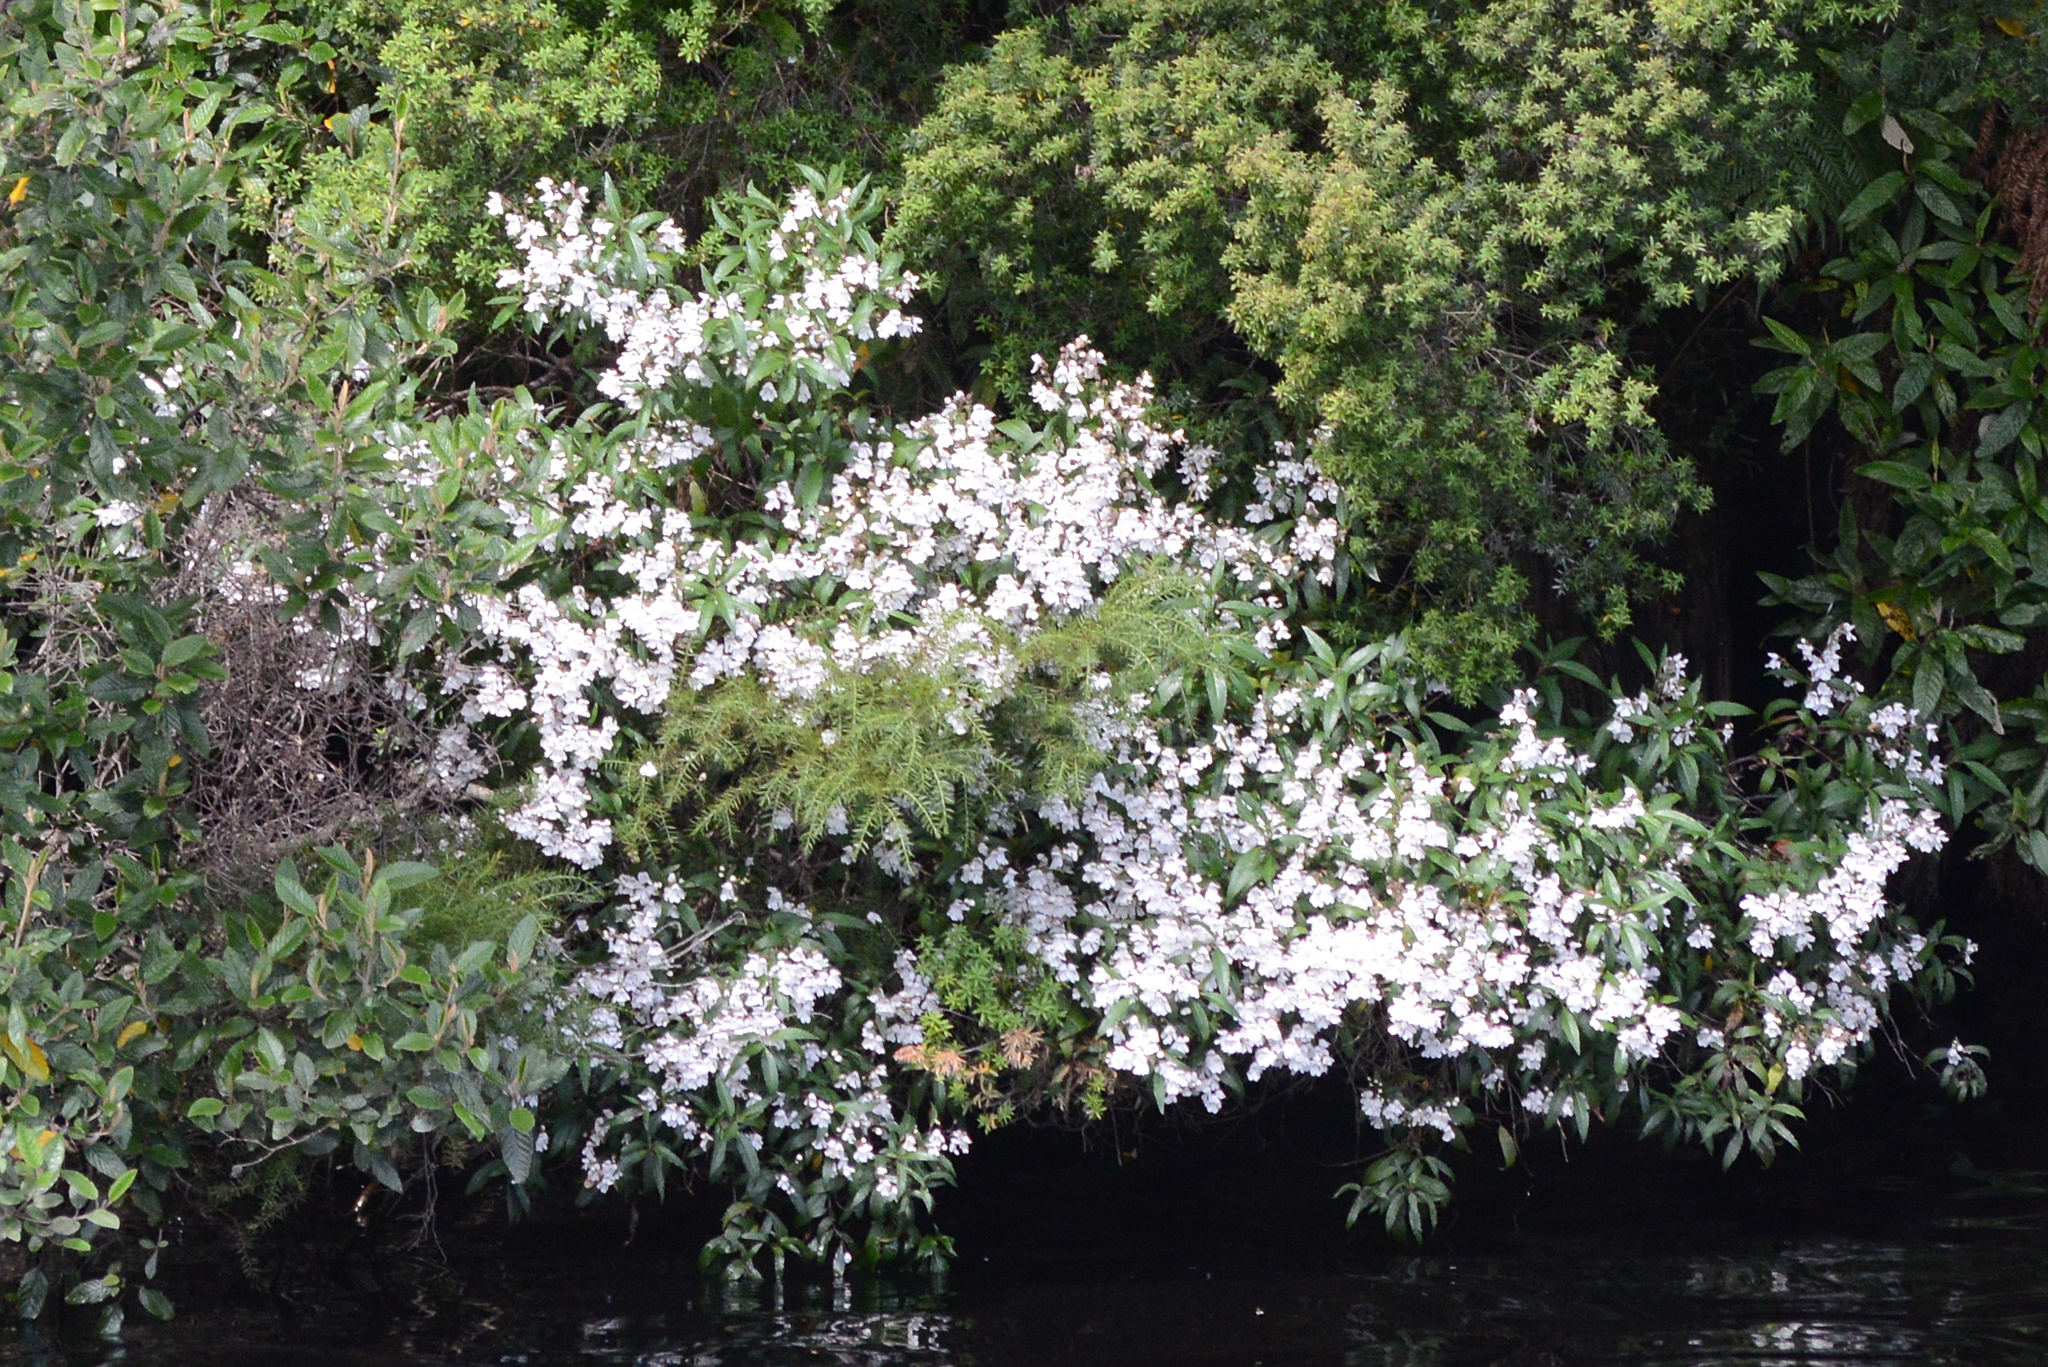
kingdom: Plantae
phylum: Tracheophyta
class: Magnoliopsida
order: Lamiales
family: Lamiaceae
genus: Prostanthera
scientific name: Prostanthera lasianthos
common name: Mountain-lilac
